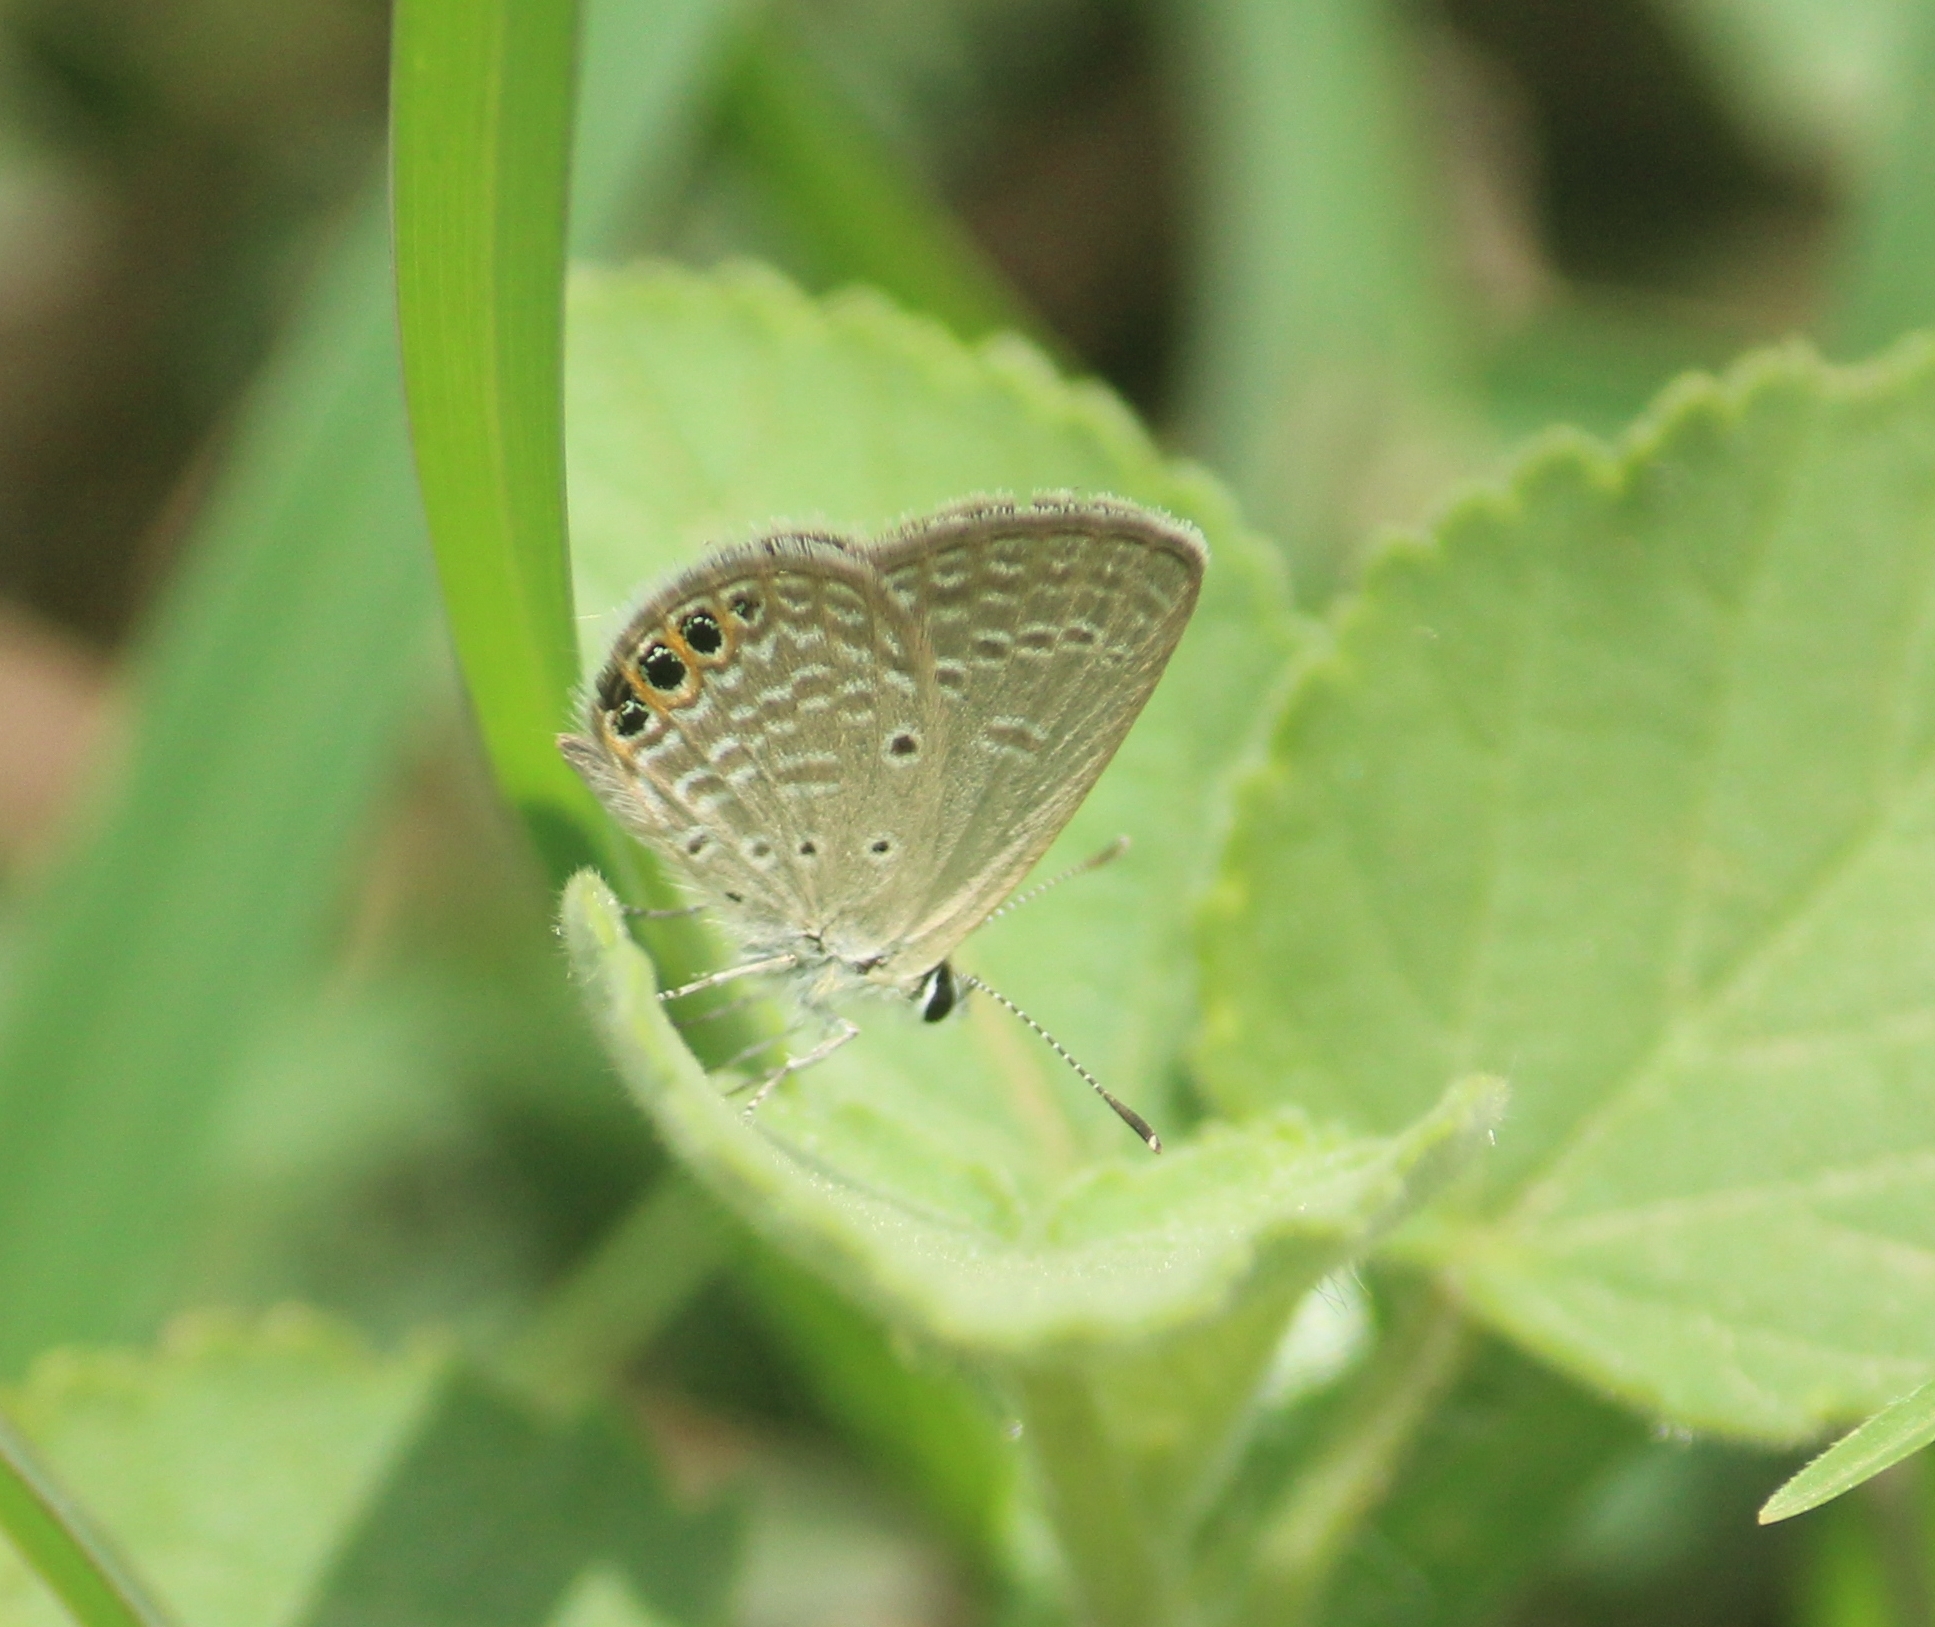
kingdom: Animalia
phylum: Arthropoda
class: Insecta
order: Lepidoptera
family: Lycaenidae
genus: Freyeria
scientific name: Freyeria trochylus
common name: Grass jewel
